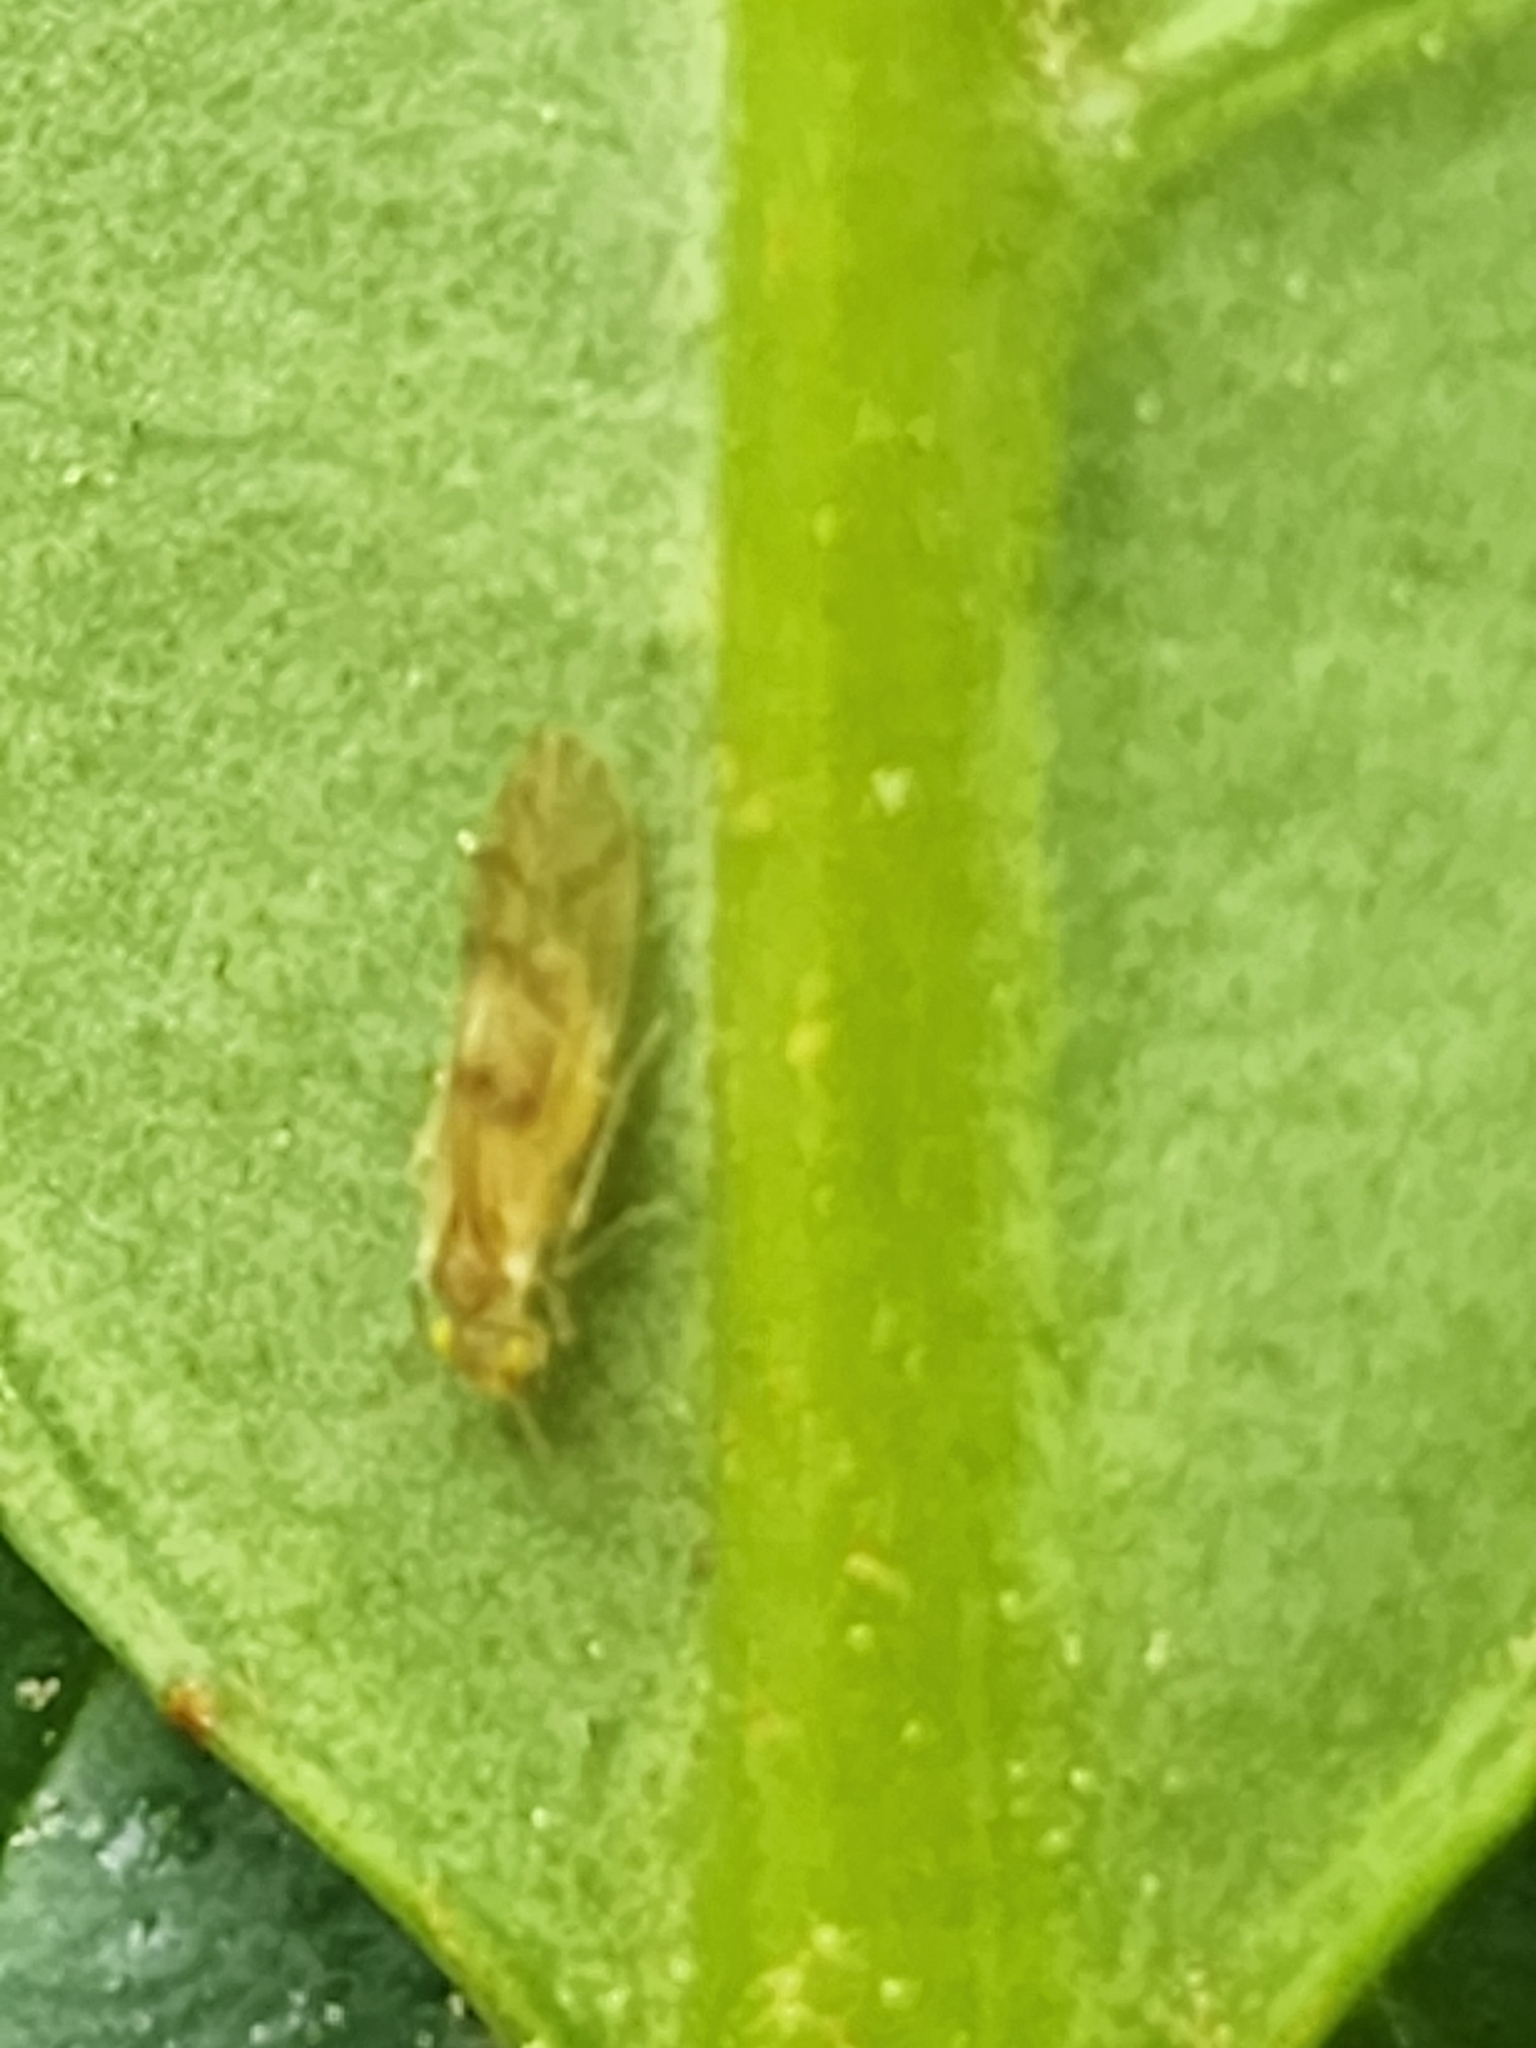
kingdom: Animalia
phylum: Arthropoda
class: Insecta
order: Psocodea
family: Caeciliusidae
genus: Valenzuela
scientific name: Valenzuela flavidus
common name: Yellow barklouse
